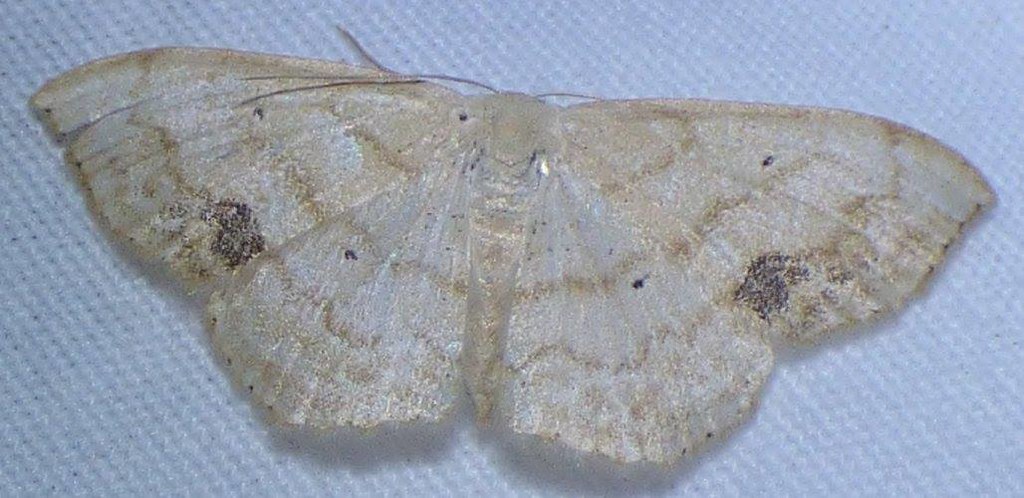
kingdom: Animalia
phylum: Arthropoda
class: Insecta
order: Lepidoptera
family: Geometridae
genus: Scopula
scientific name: Scopula limboundata
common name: Large lace border
